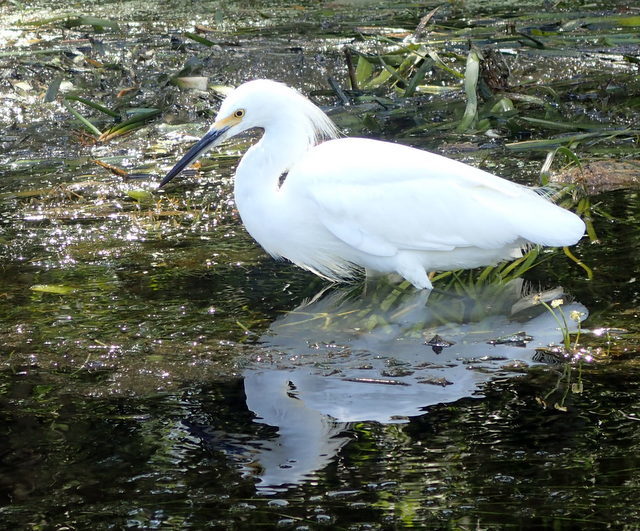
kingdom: Animalia
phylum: Chordata
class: Aves
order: Pelecaniformes
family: Ardeidae
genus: Egretta
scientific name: Egretta thula
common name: Snowy egret
